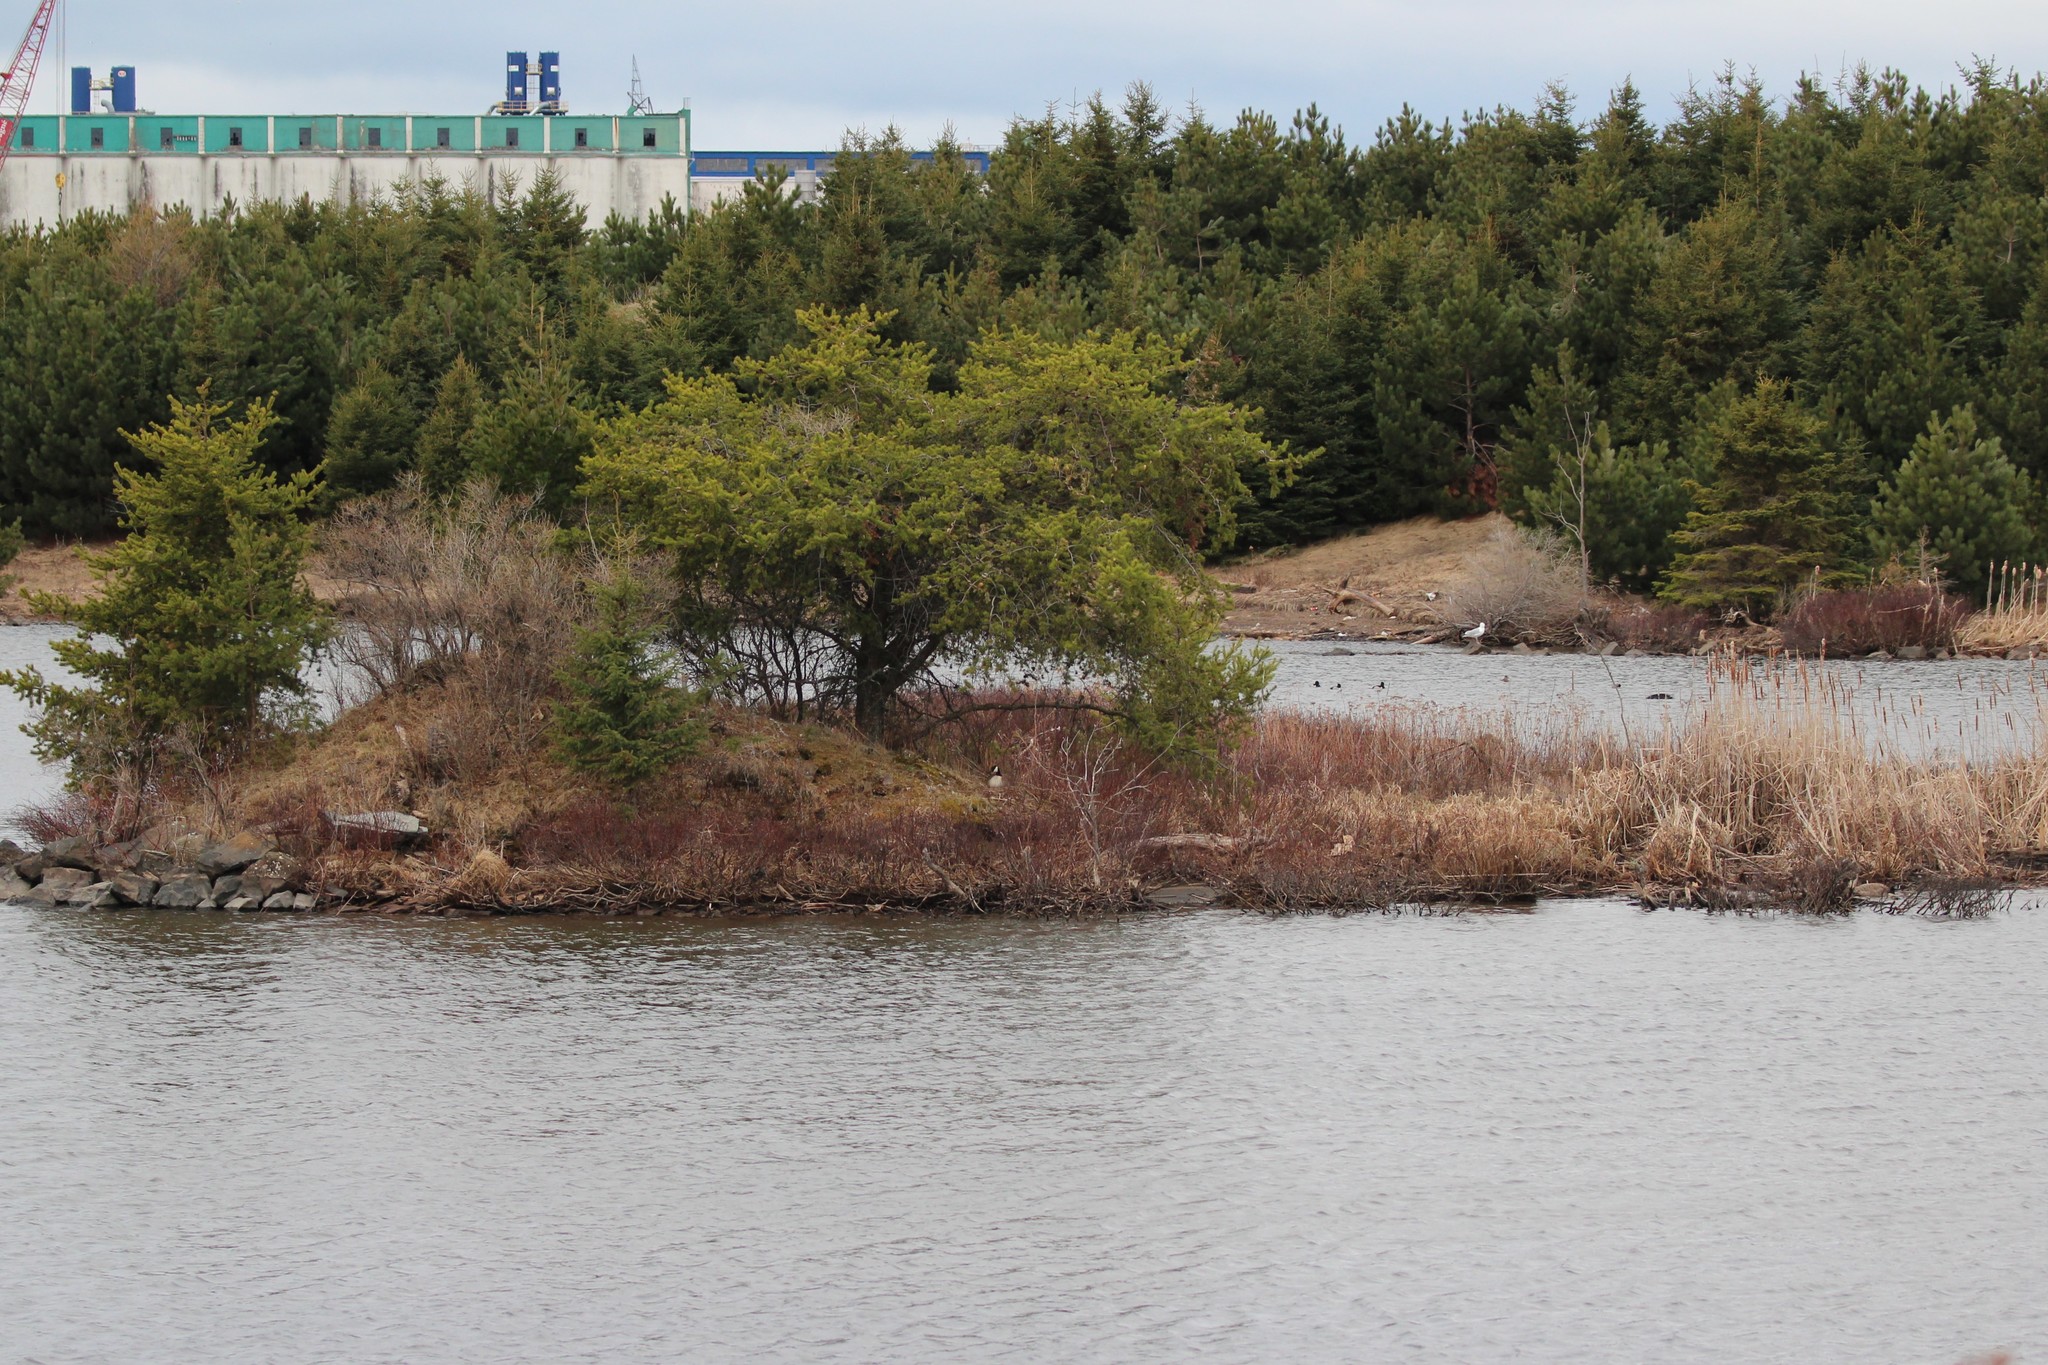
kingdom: Animalia
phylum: Chordata
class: Aves
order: Anseriformes
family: Anatidae
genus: Branta
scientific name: Branta canadensis
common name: Canada goose
